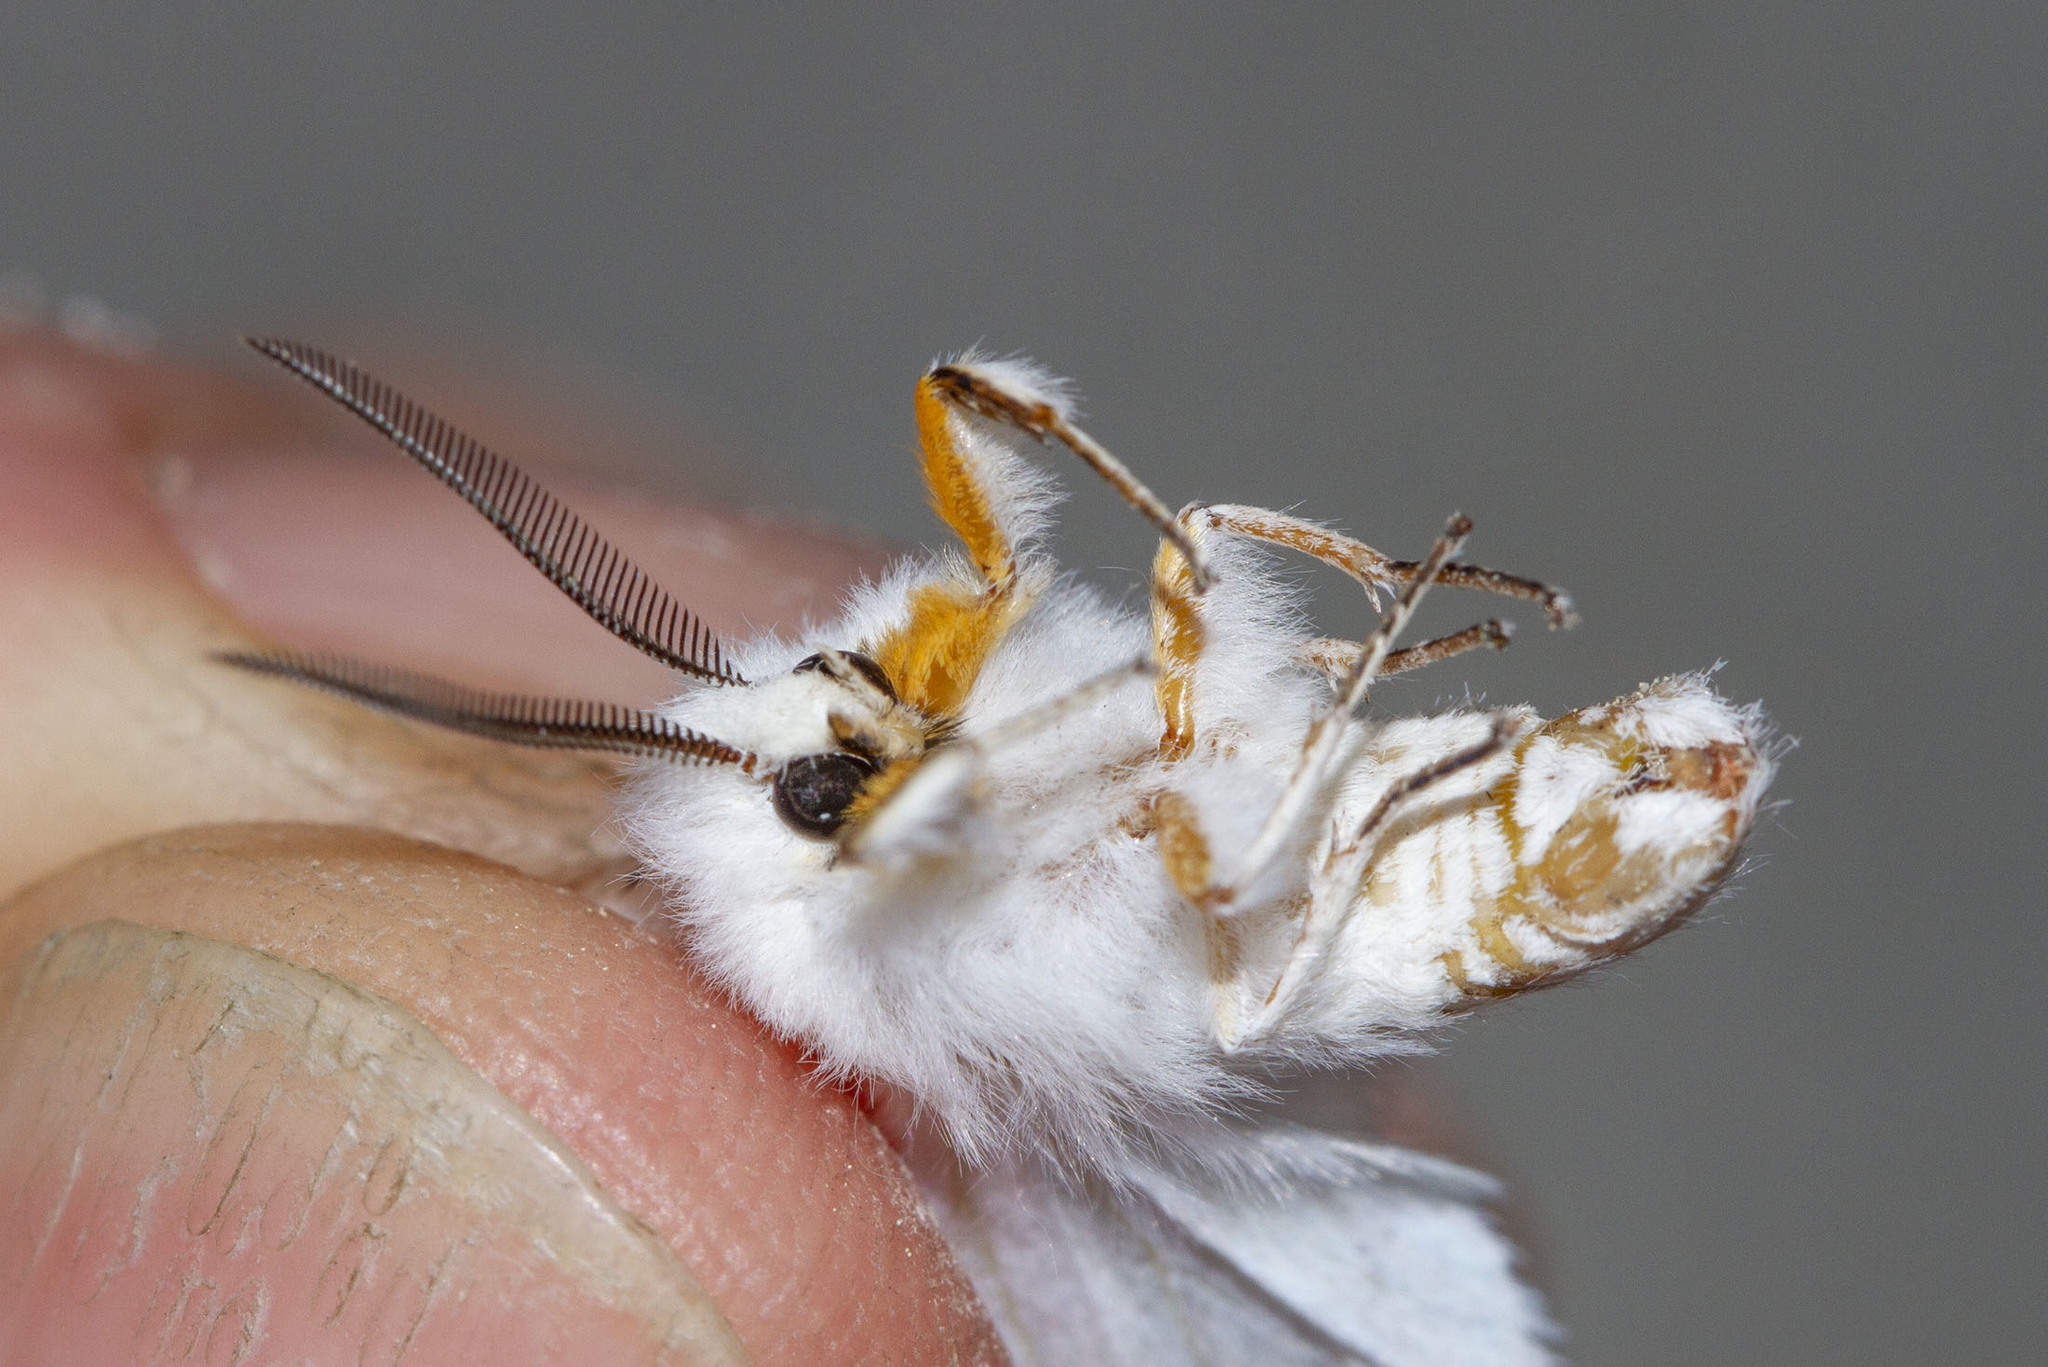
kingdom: Animalia
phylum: Arthropoda
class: Insecta
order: Lepidoptera
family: Erebidae
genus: Spilosoma
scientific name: Spilosoma congrua
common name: Agreeable tiger moth
